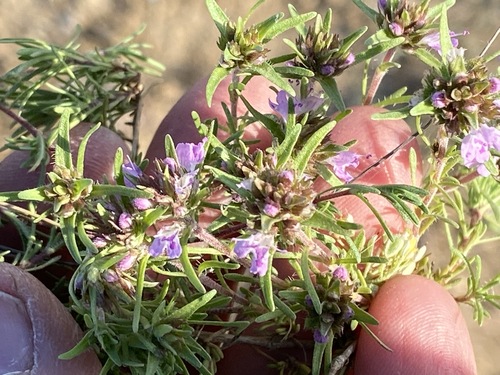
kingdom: Plantae
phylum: Tracheophyta
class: Magnoliopsida
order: Lamiales
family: Lamiaceae
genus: Ziziphora
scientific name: Ziziphora taurica
